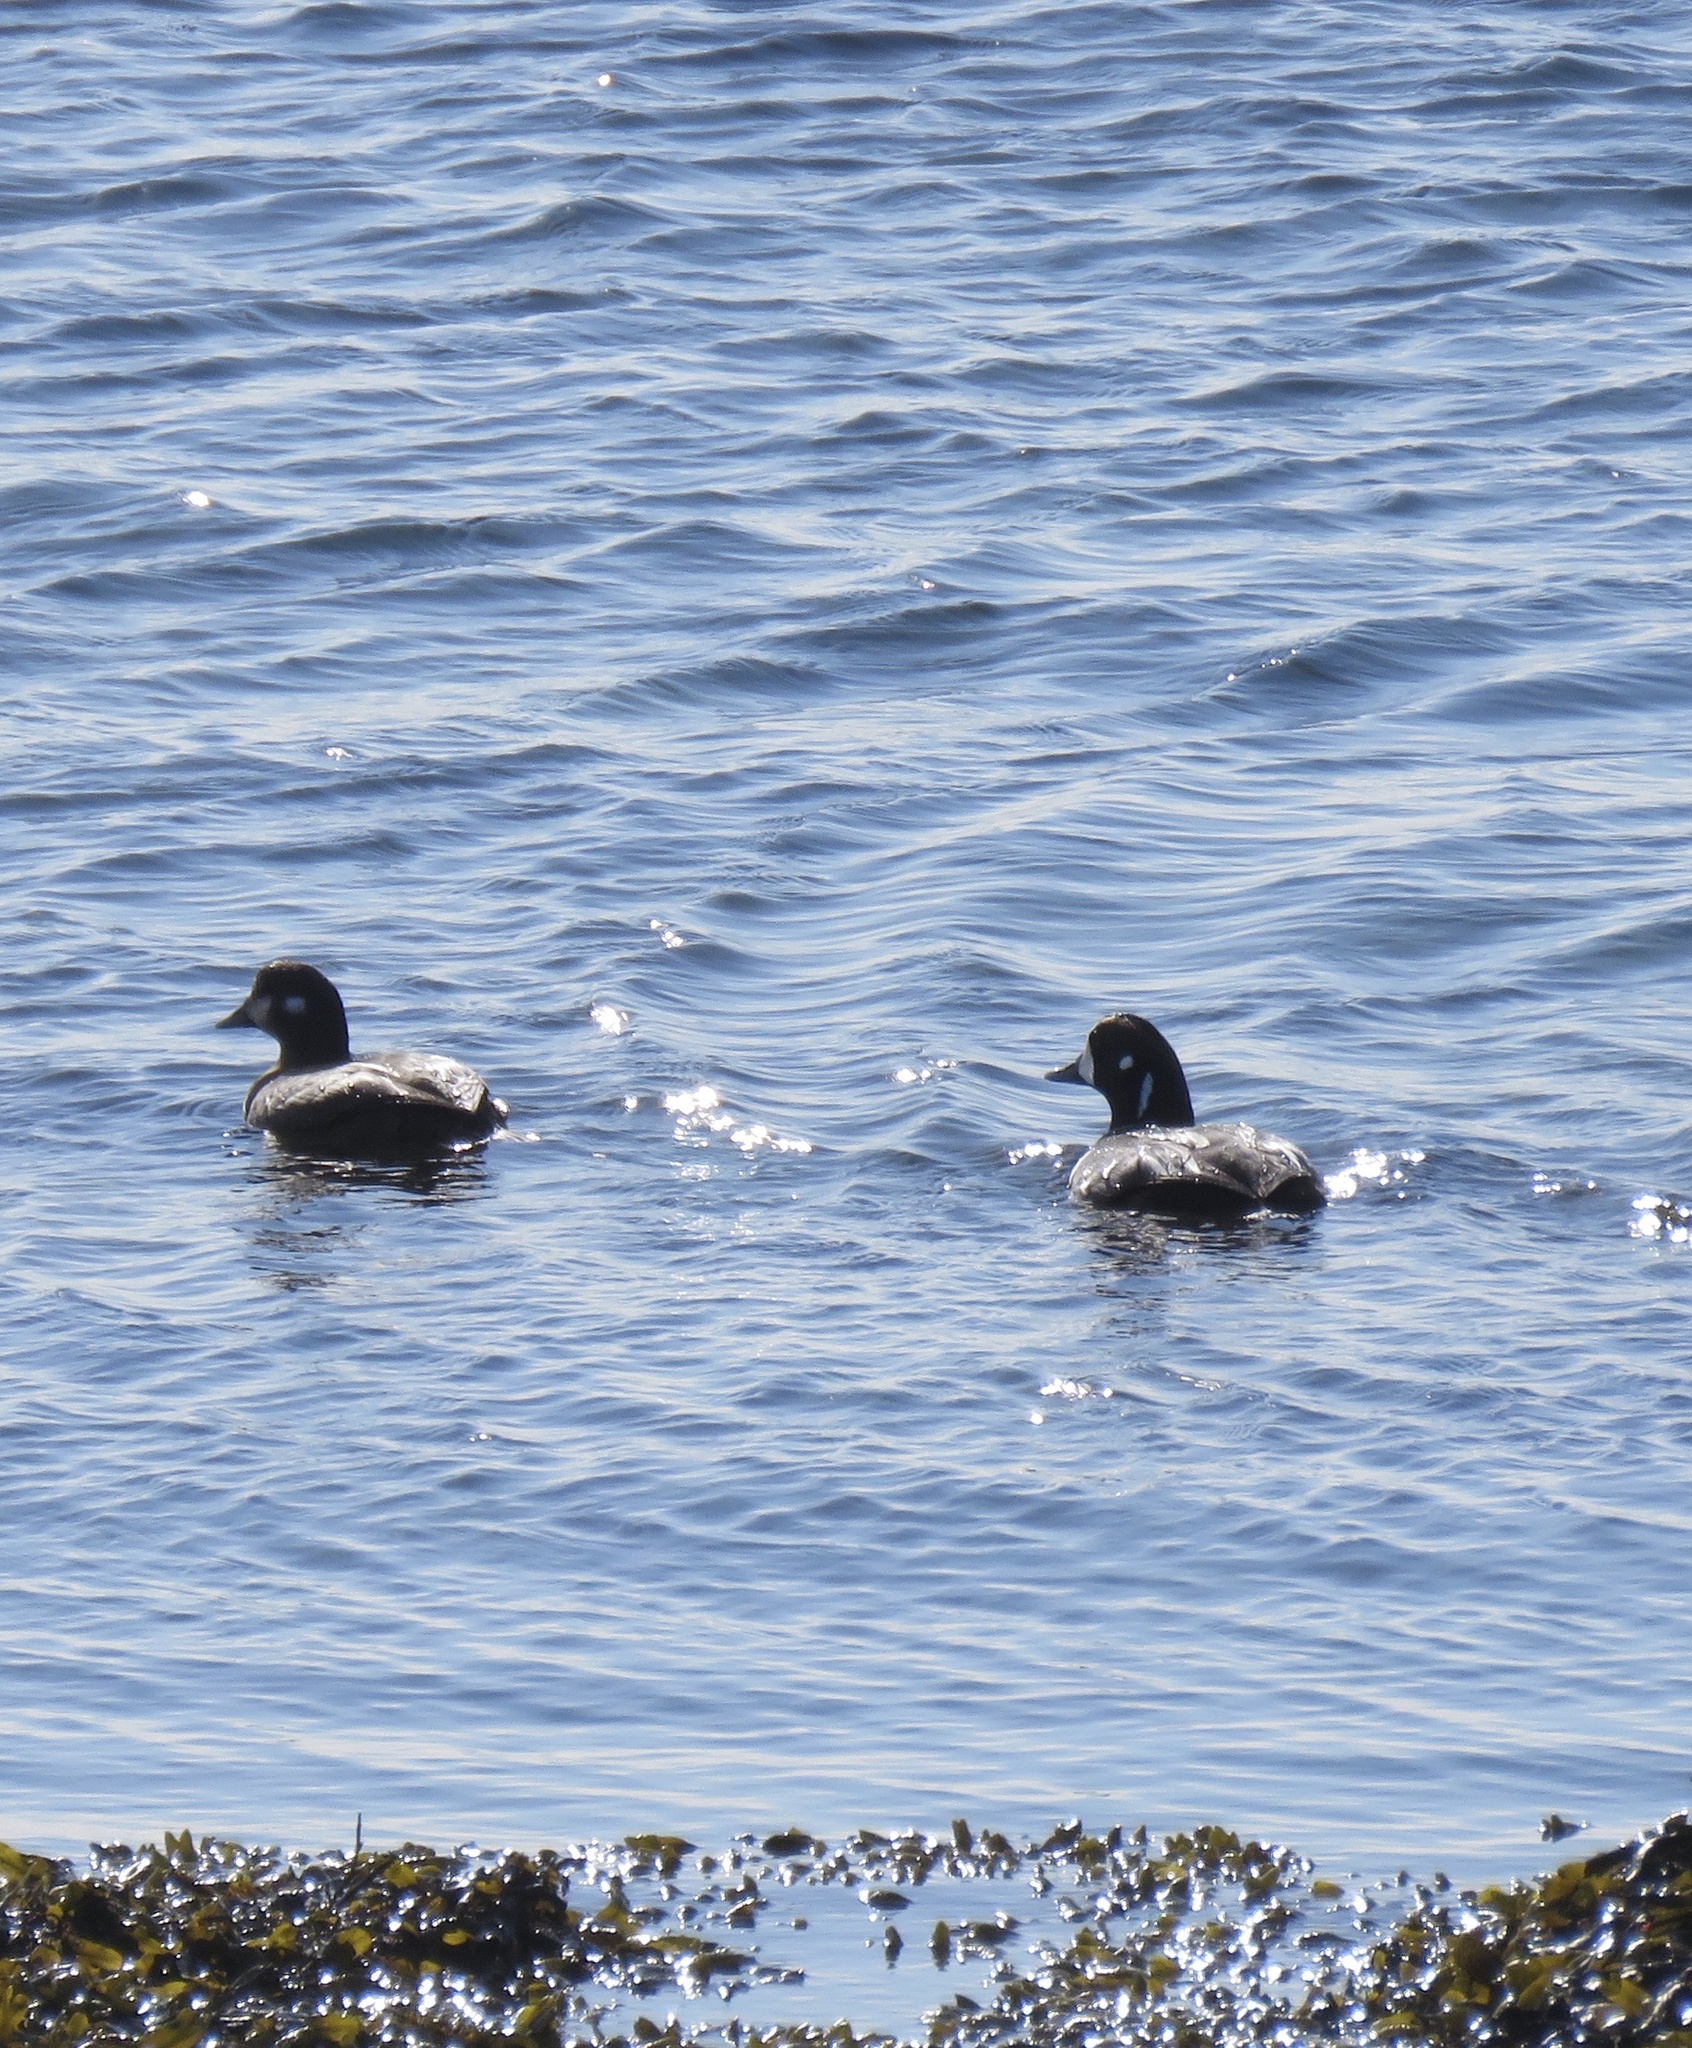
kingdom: Animalia
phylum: Chordata
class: Aves
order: Anseriformes
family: Anatidae
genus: Histrionicus
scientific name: Histrionicus histrionicus
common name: Harlequin duck
